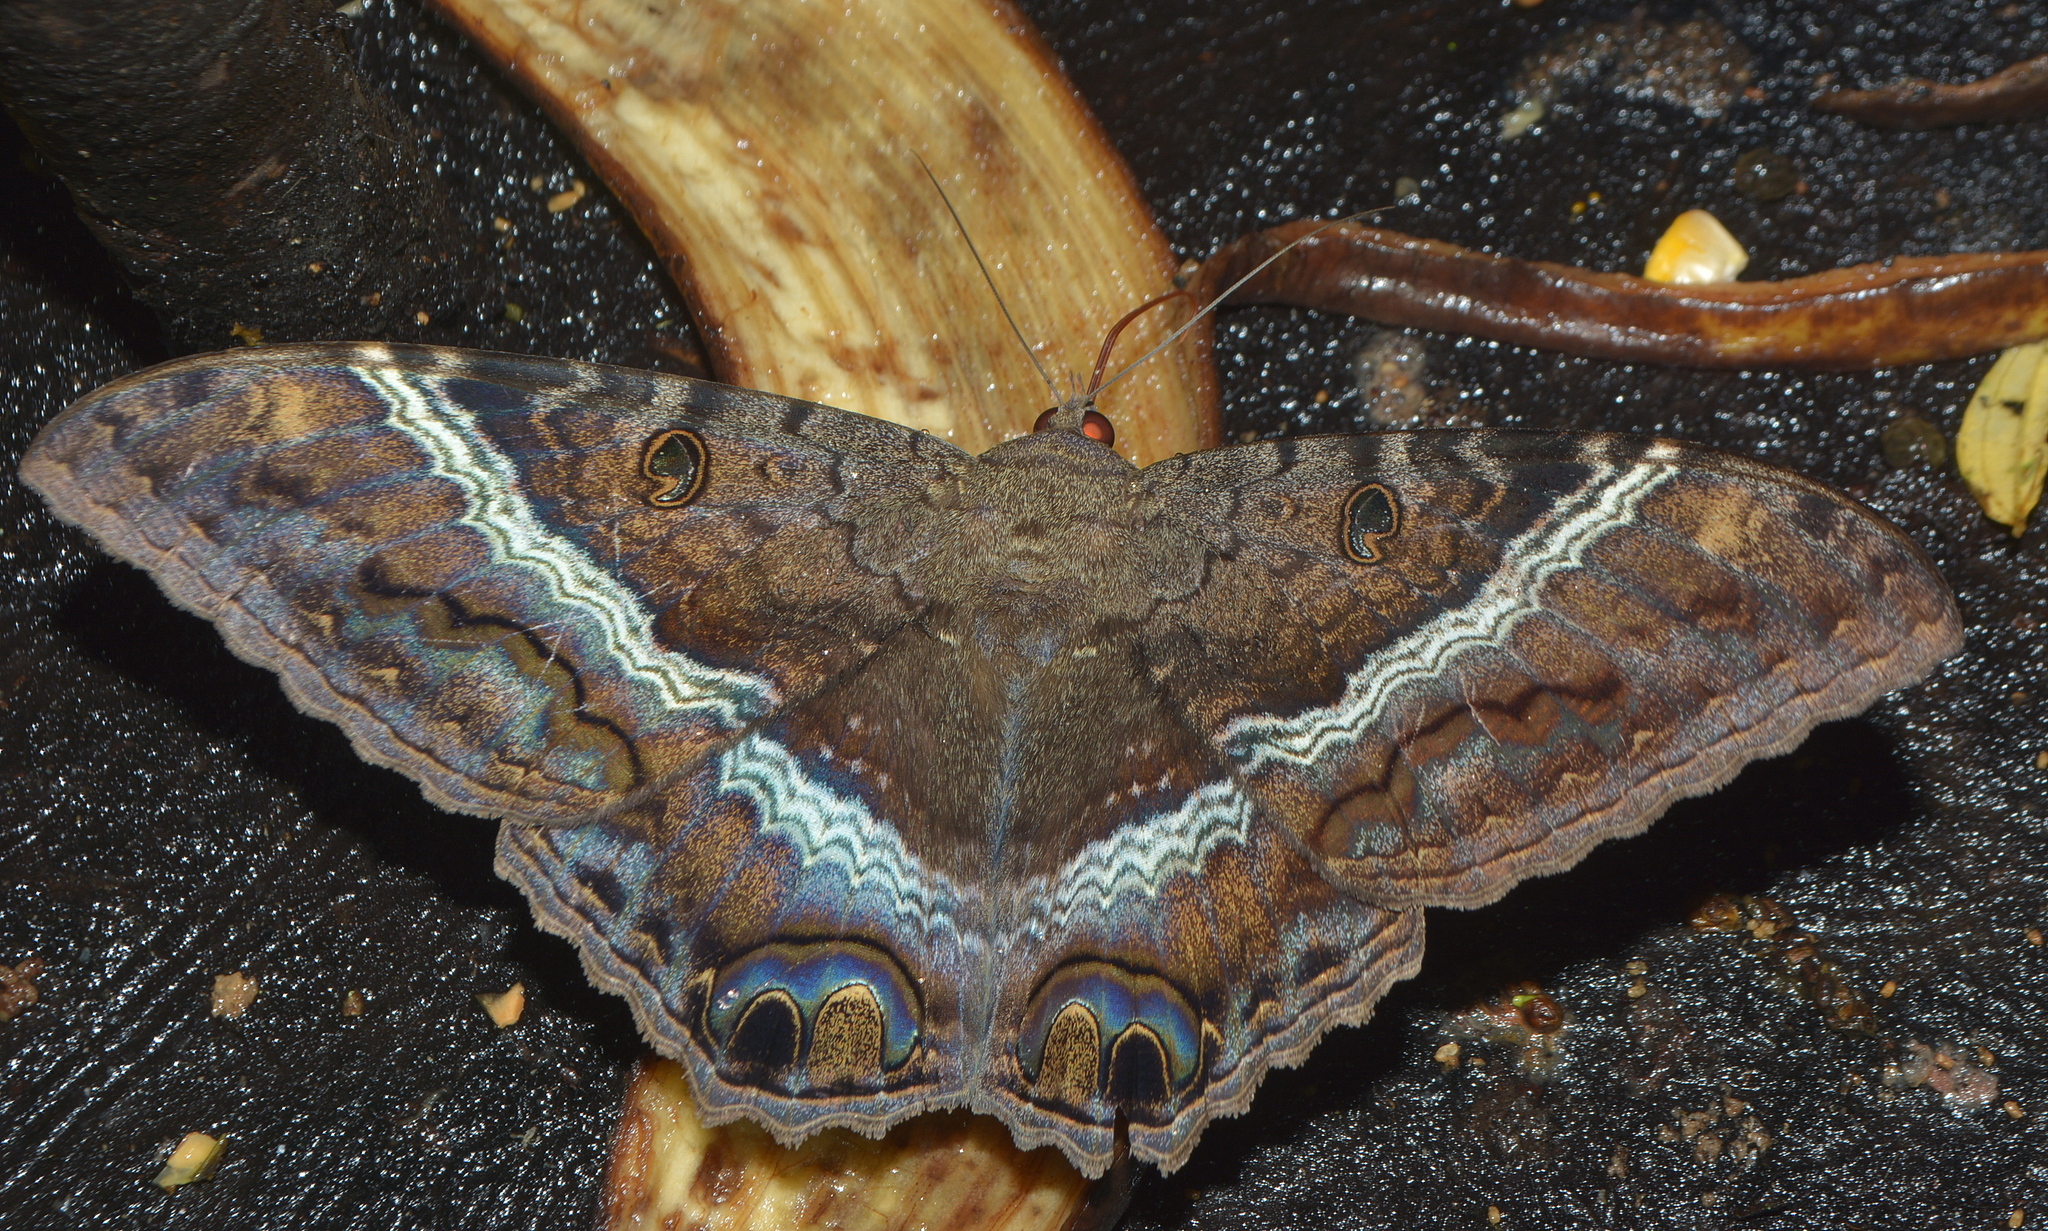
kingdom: Animalia
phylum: Arthropoda
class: Insecta
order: Lepidoptera
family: Erebidae
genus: Ascalapha
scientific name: Ascalapha odorata
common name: Black witch
